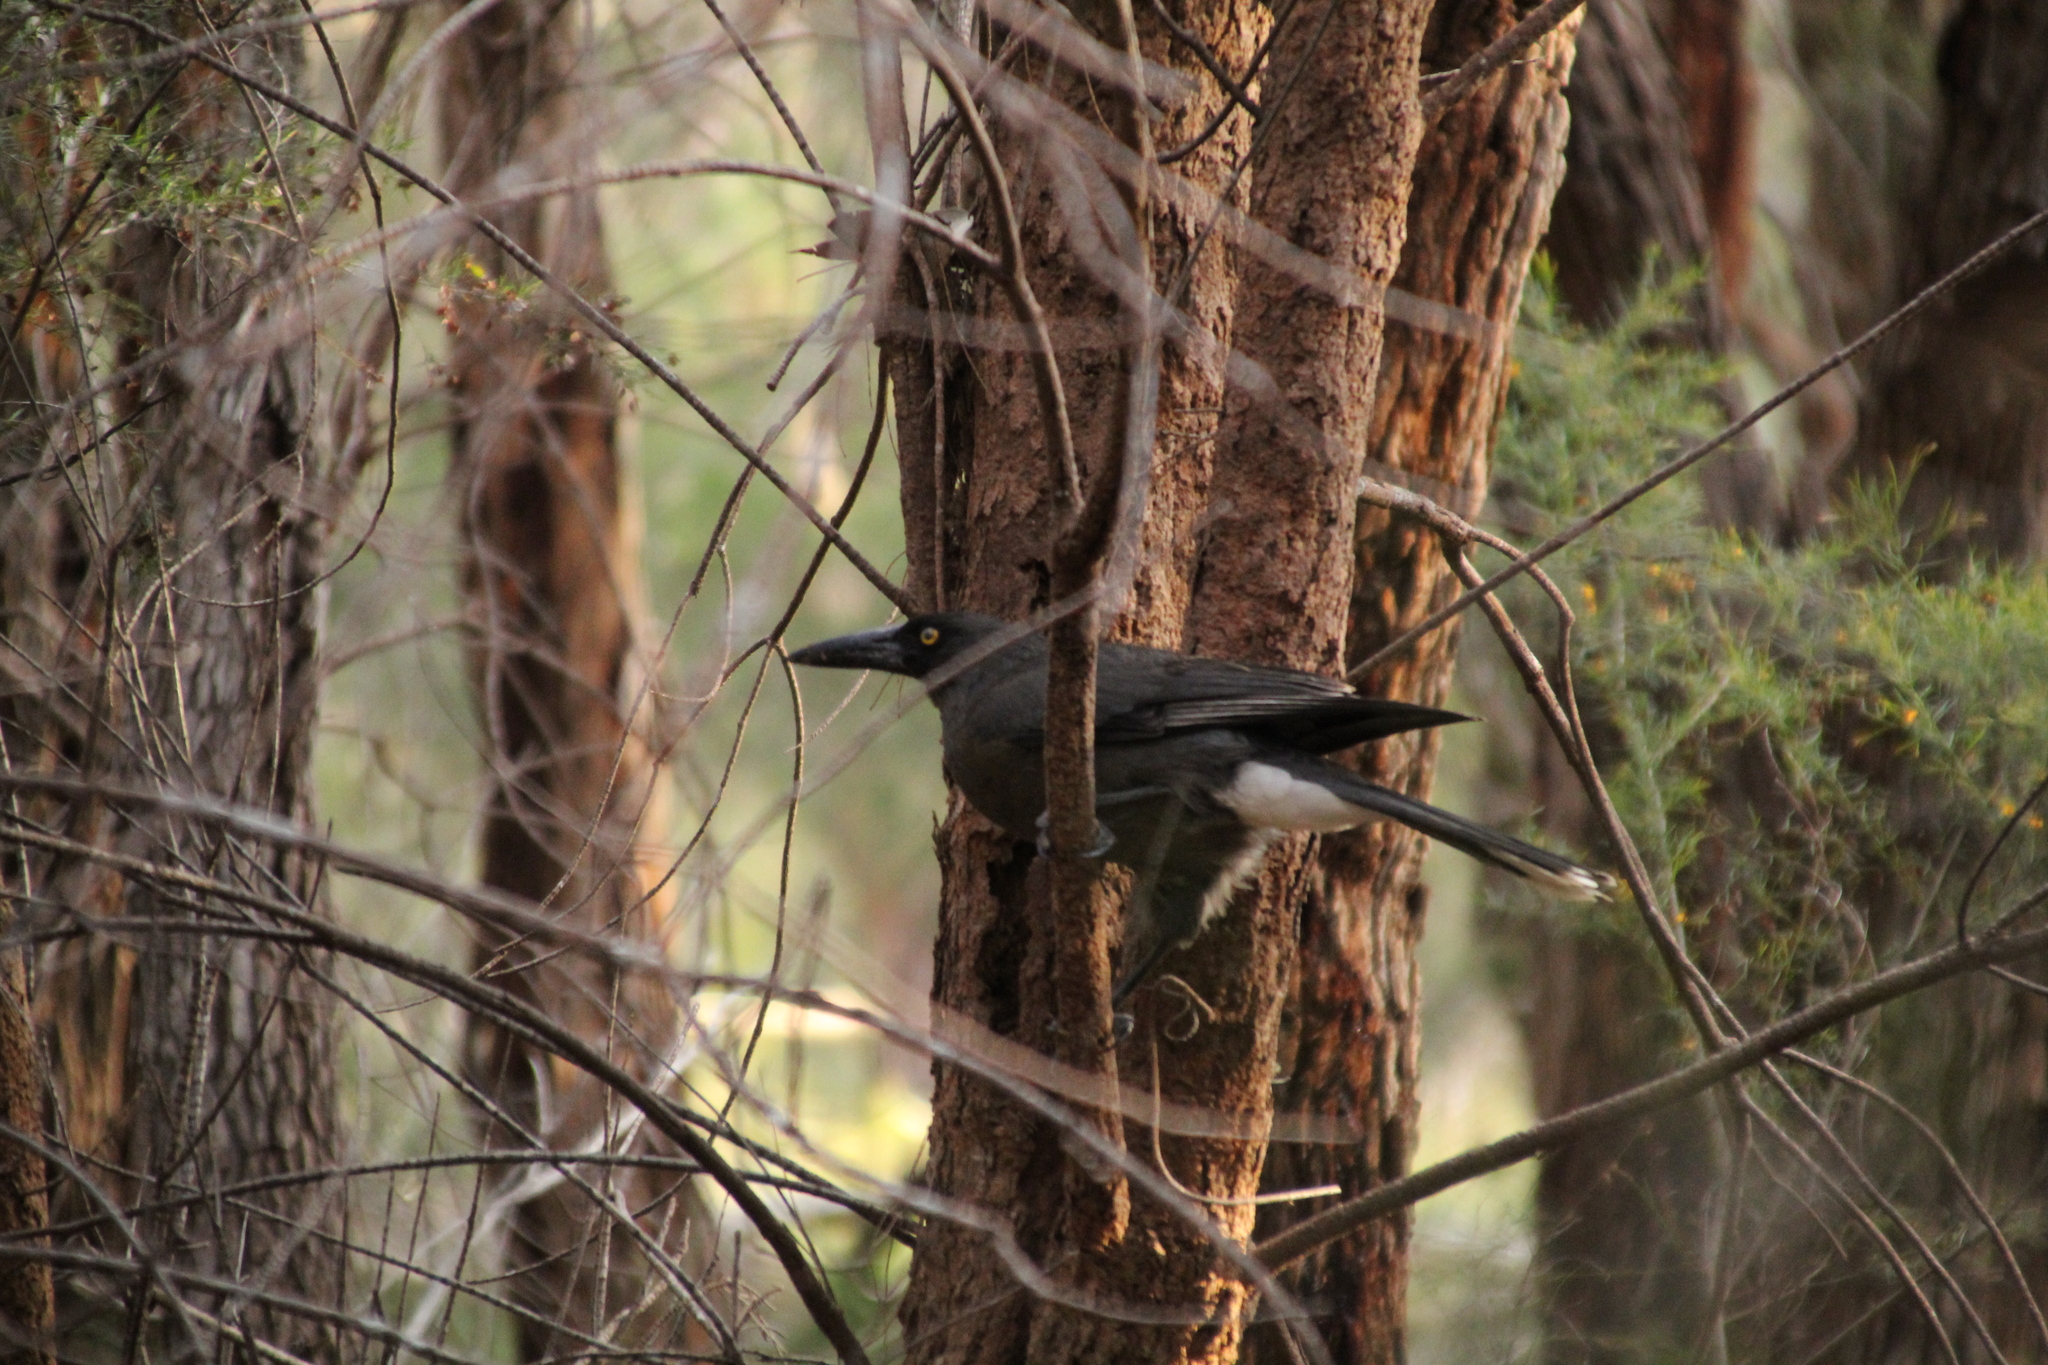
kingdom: Animalia
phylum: Chordata
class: Aves
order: Passeriformes
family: Cracticidae
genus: Strepera
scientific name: Strepera versicolor
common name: Grey currawong
